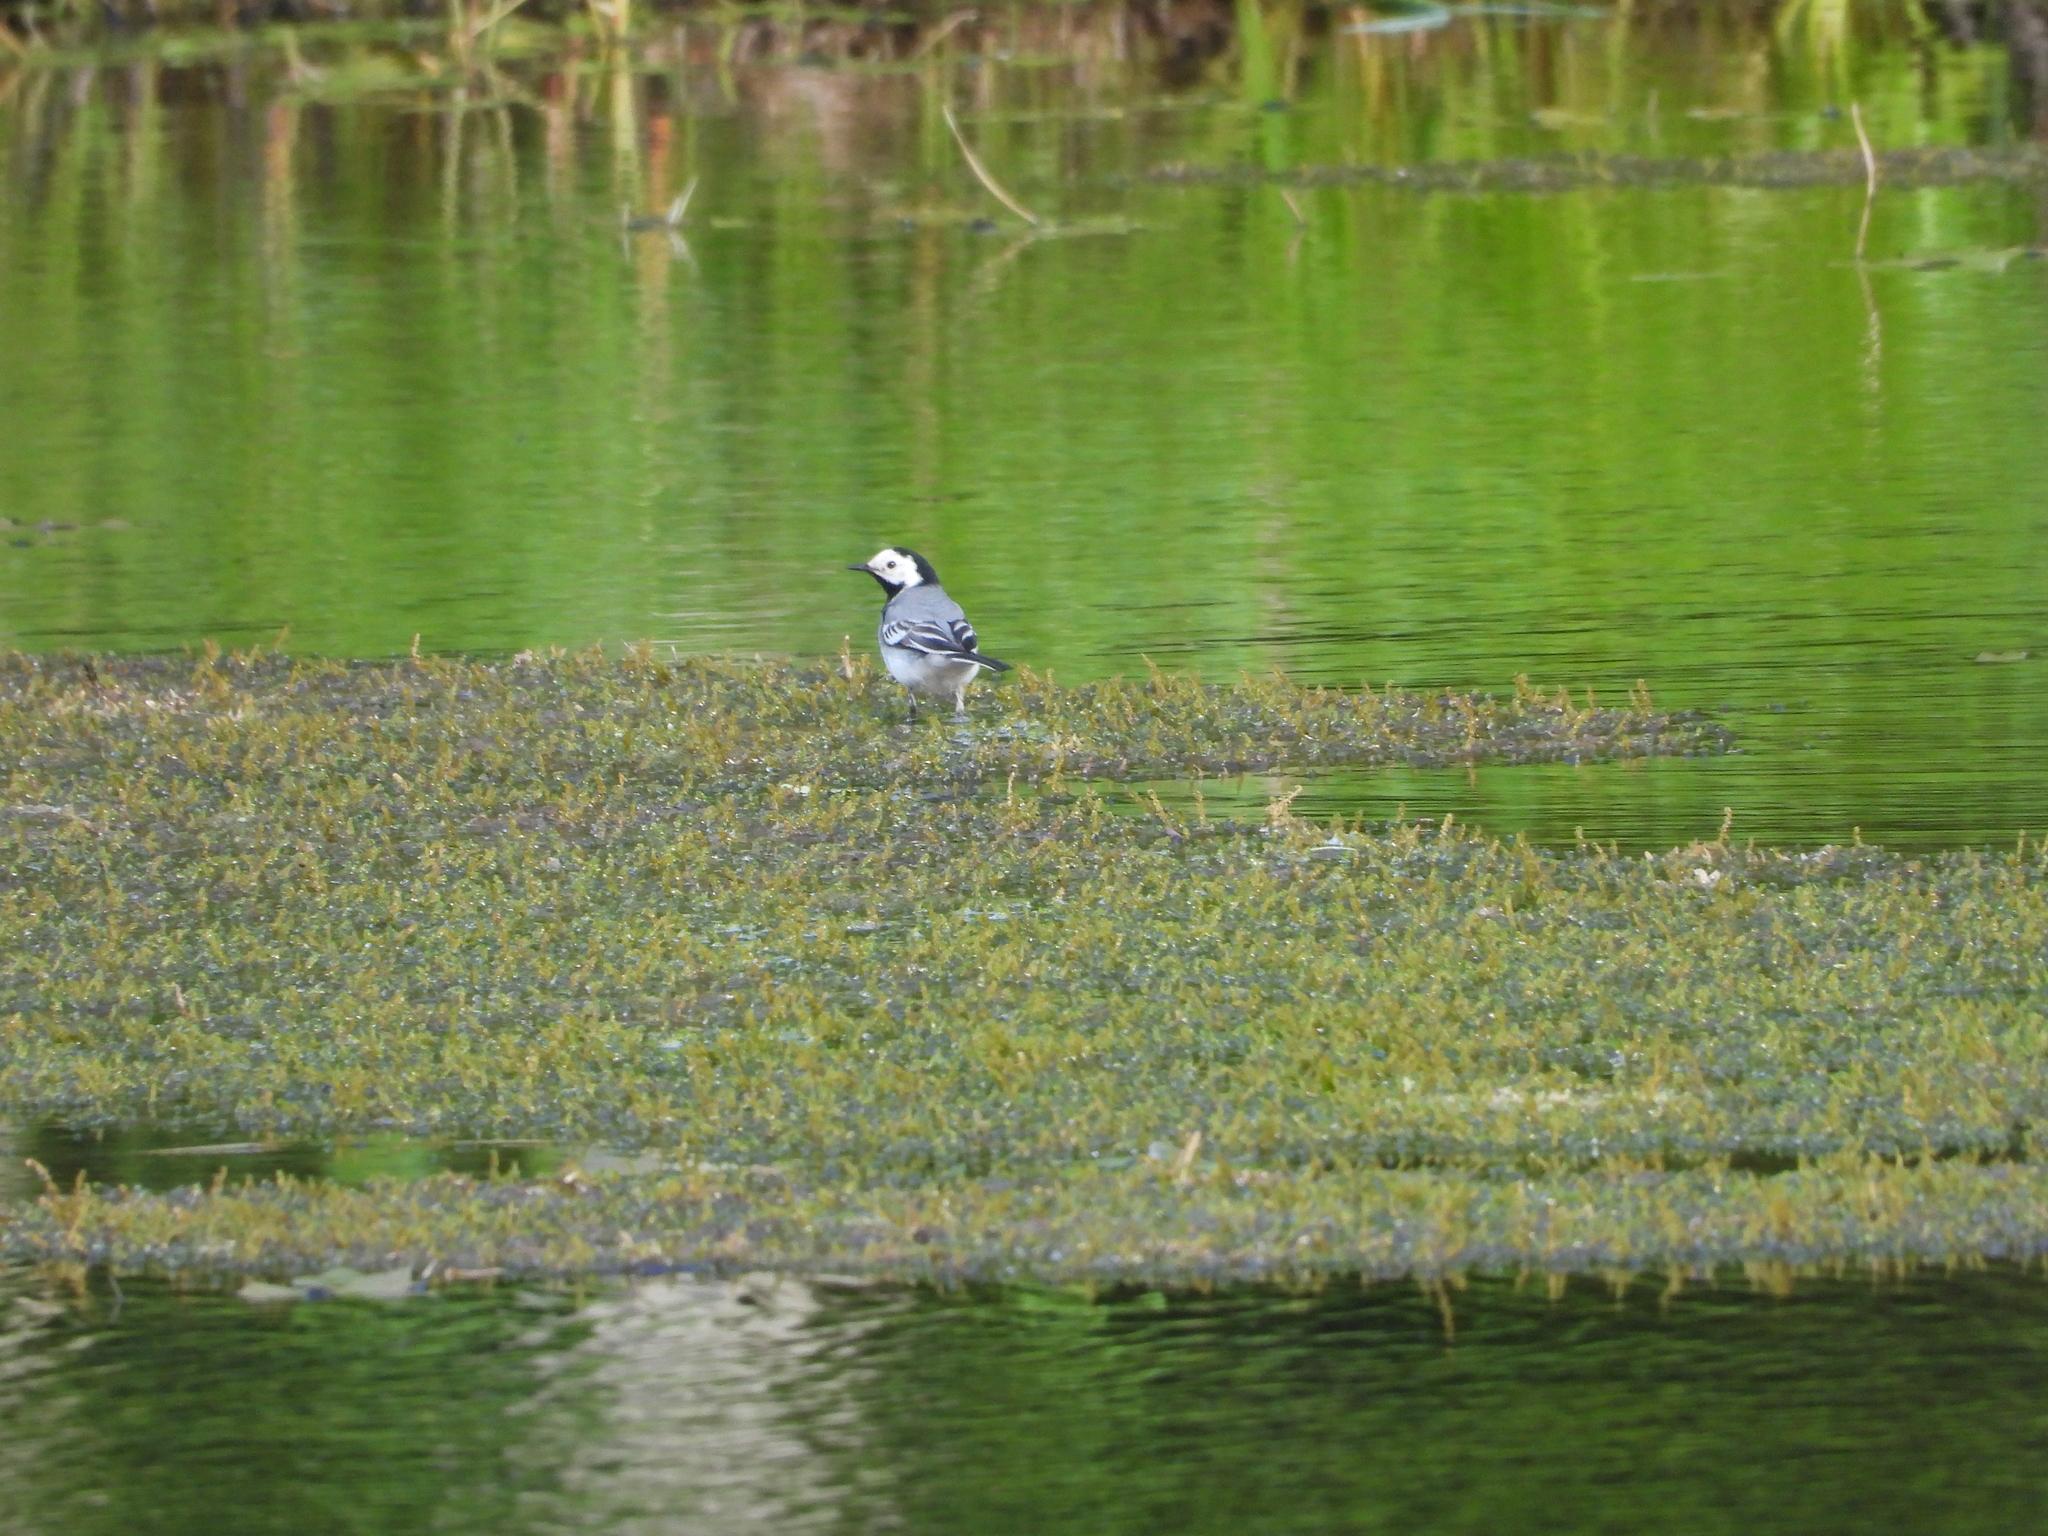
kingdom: Animalia
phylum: Chordata
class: Aves
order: Passeriformes
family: Motacillidae
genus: Motacilla
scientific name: Motacilla alba
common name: White wagtail
